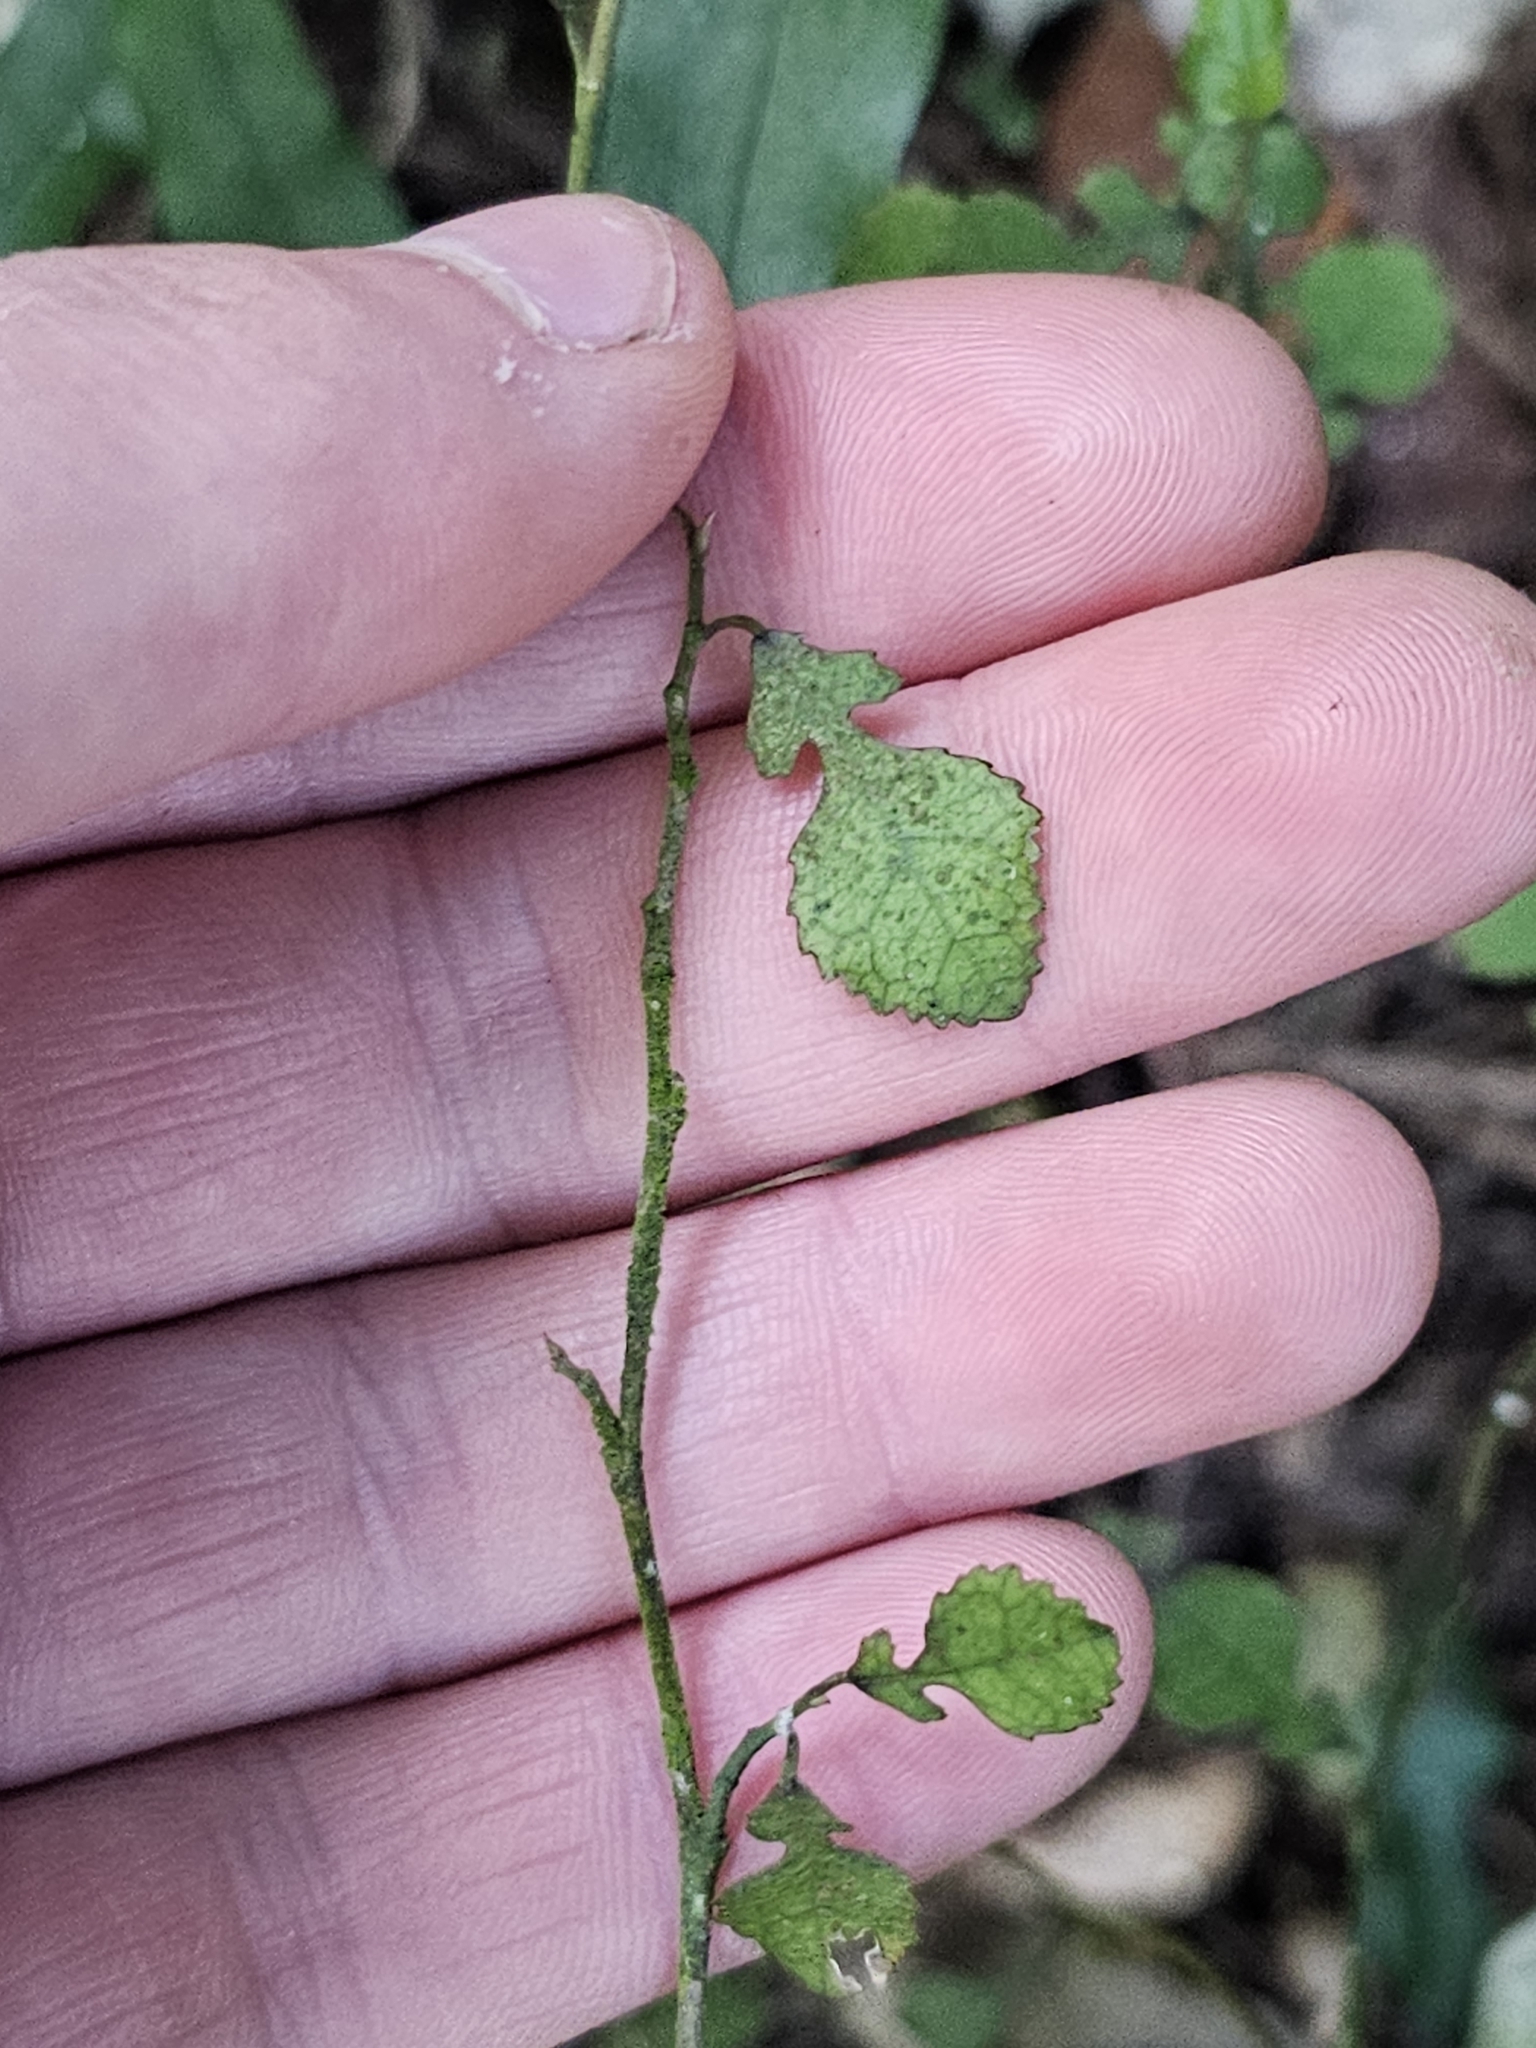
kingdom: Plantae
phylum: Tracheophyta
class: Magnoliopsida
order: Rosales
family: Moraceae
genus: Paratrophis
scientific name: Paratrophis microphylla
